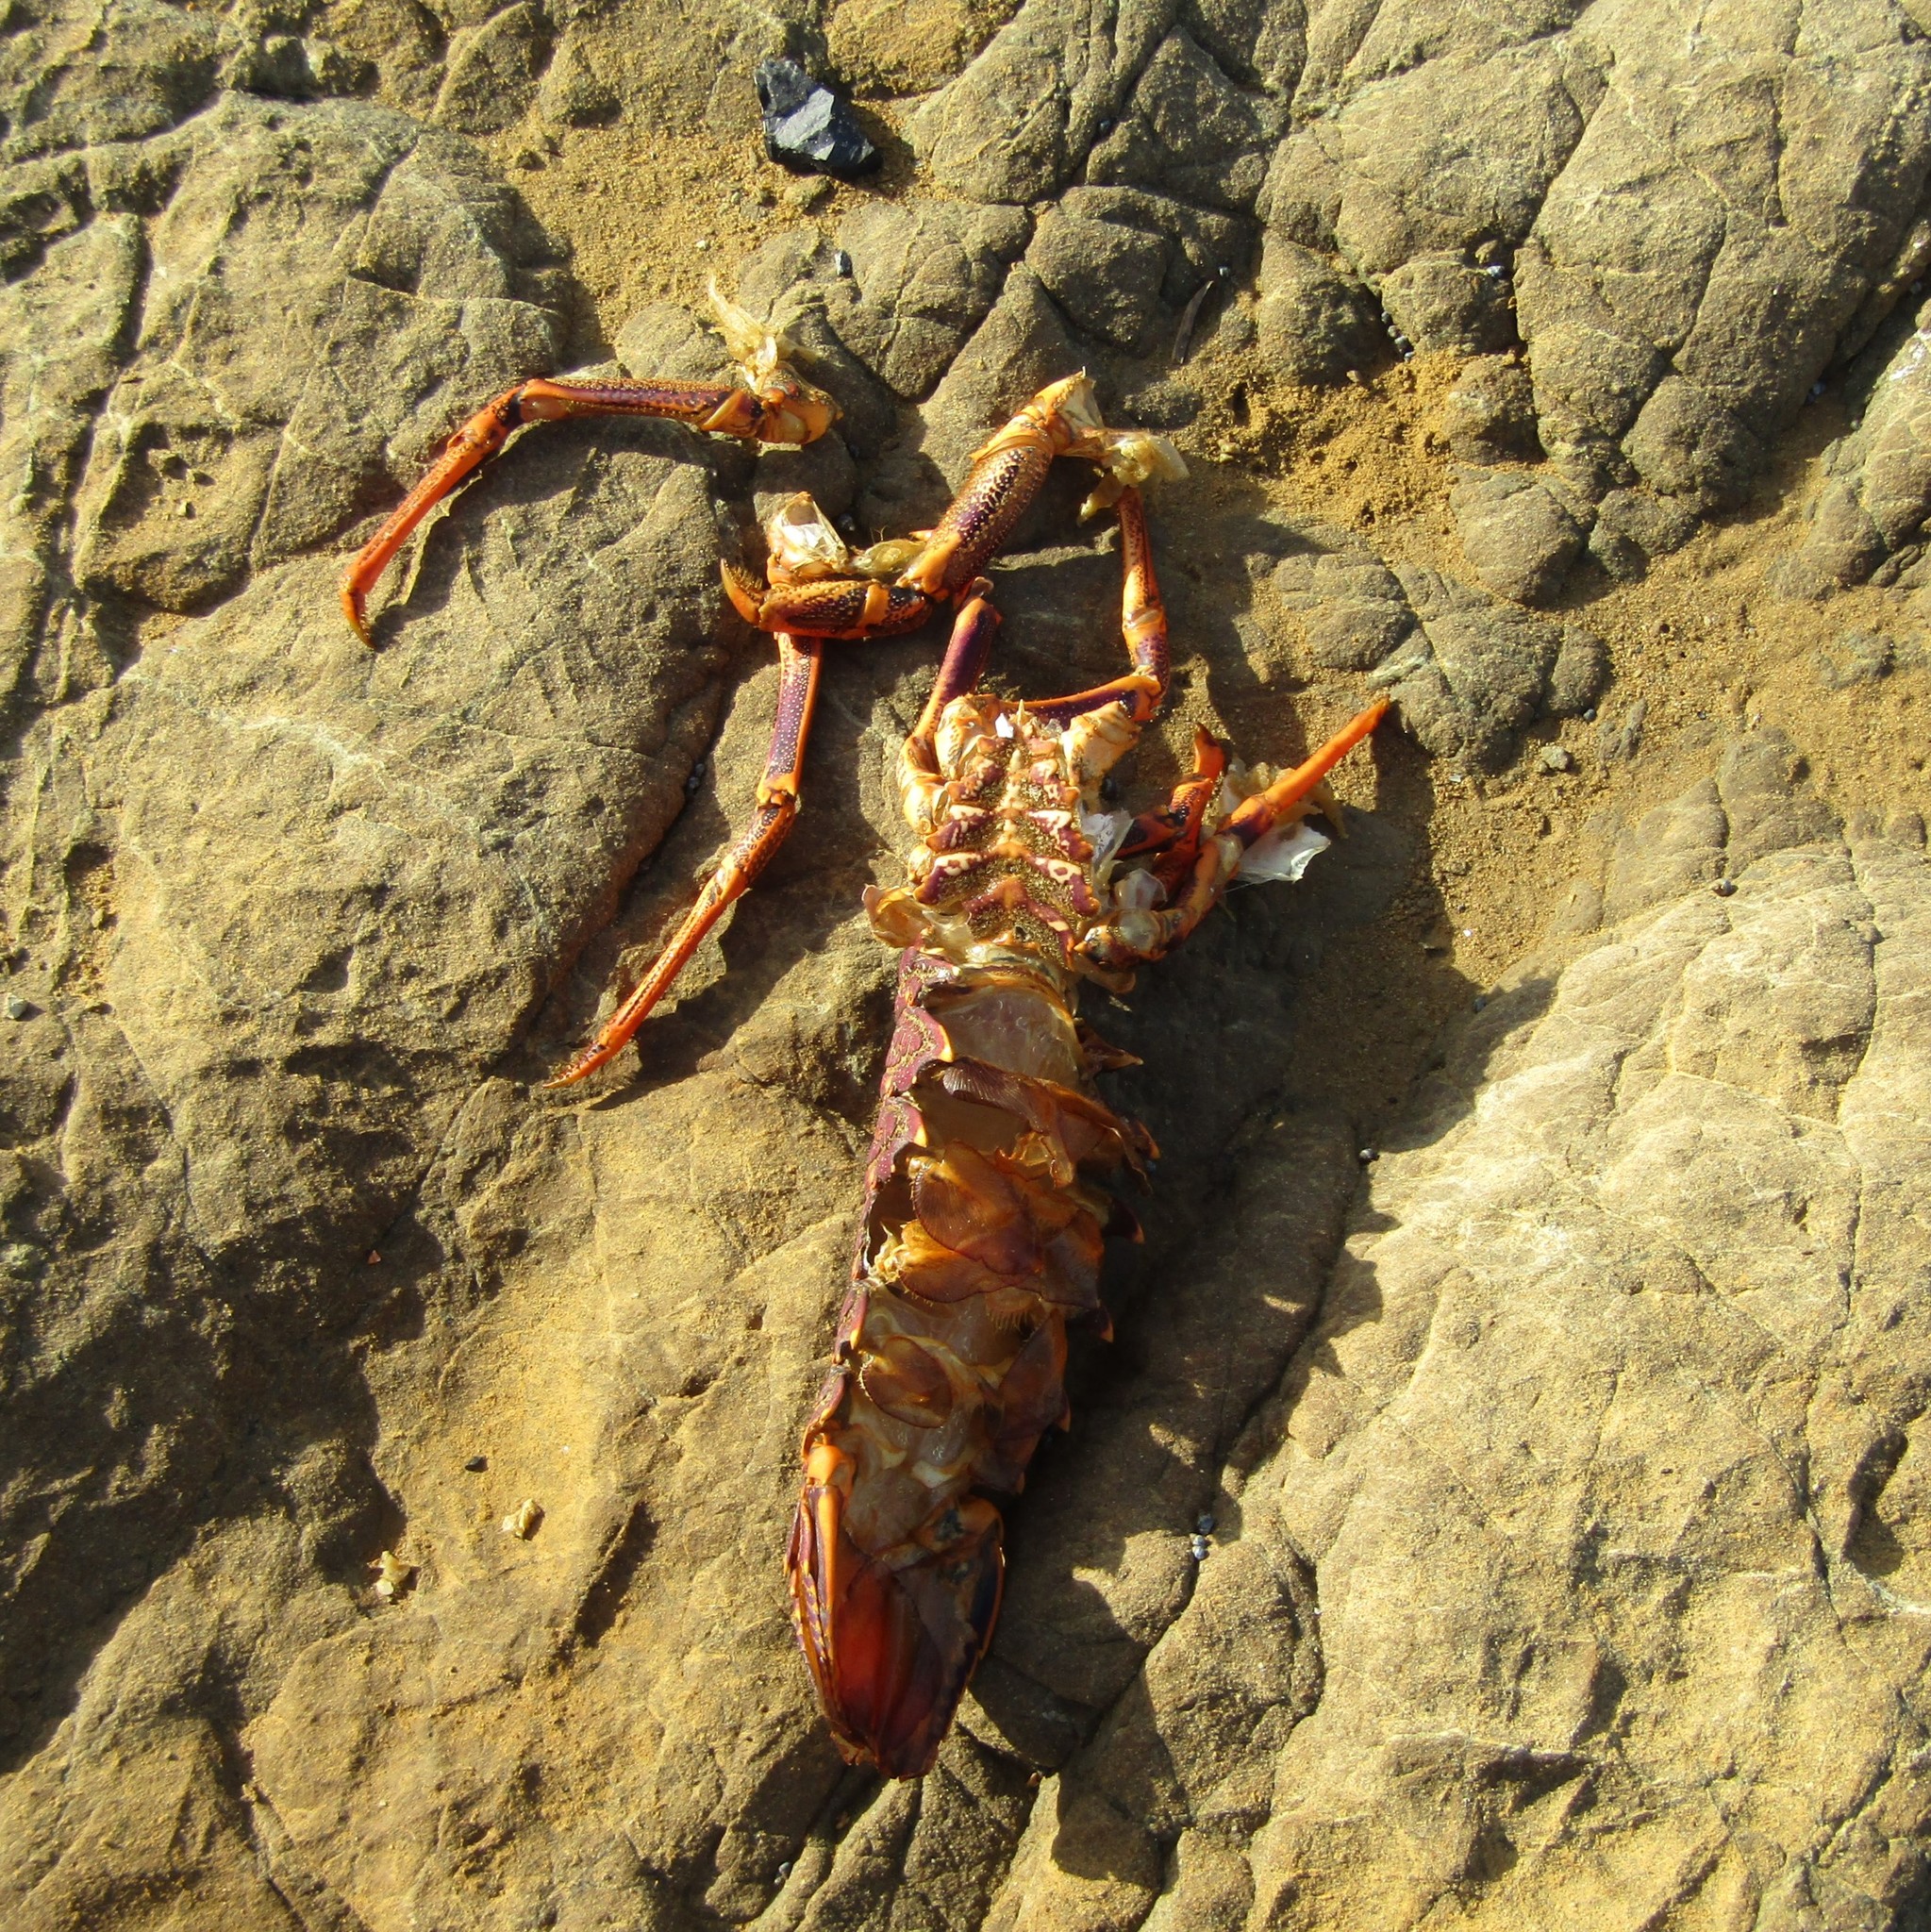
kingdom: Animalia
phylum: Arthropoda
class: Malacostraca
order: Decapoda
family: Palinuridae
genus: Jasus
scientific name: Jasus edwardsii
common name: Red rock lobster
